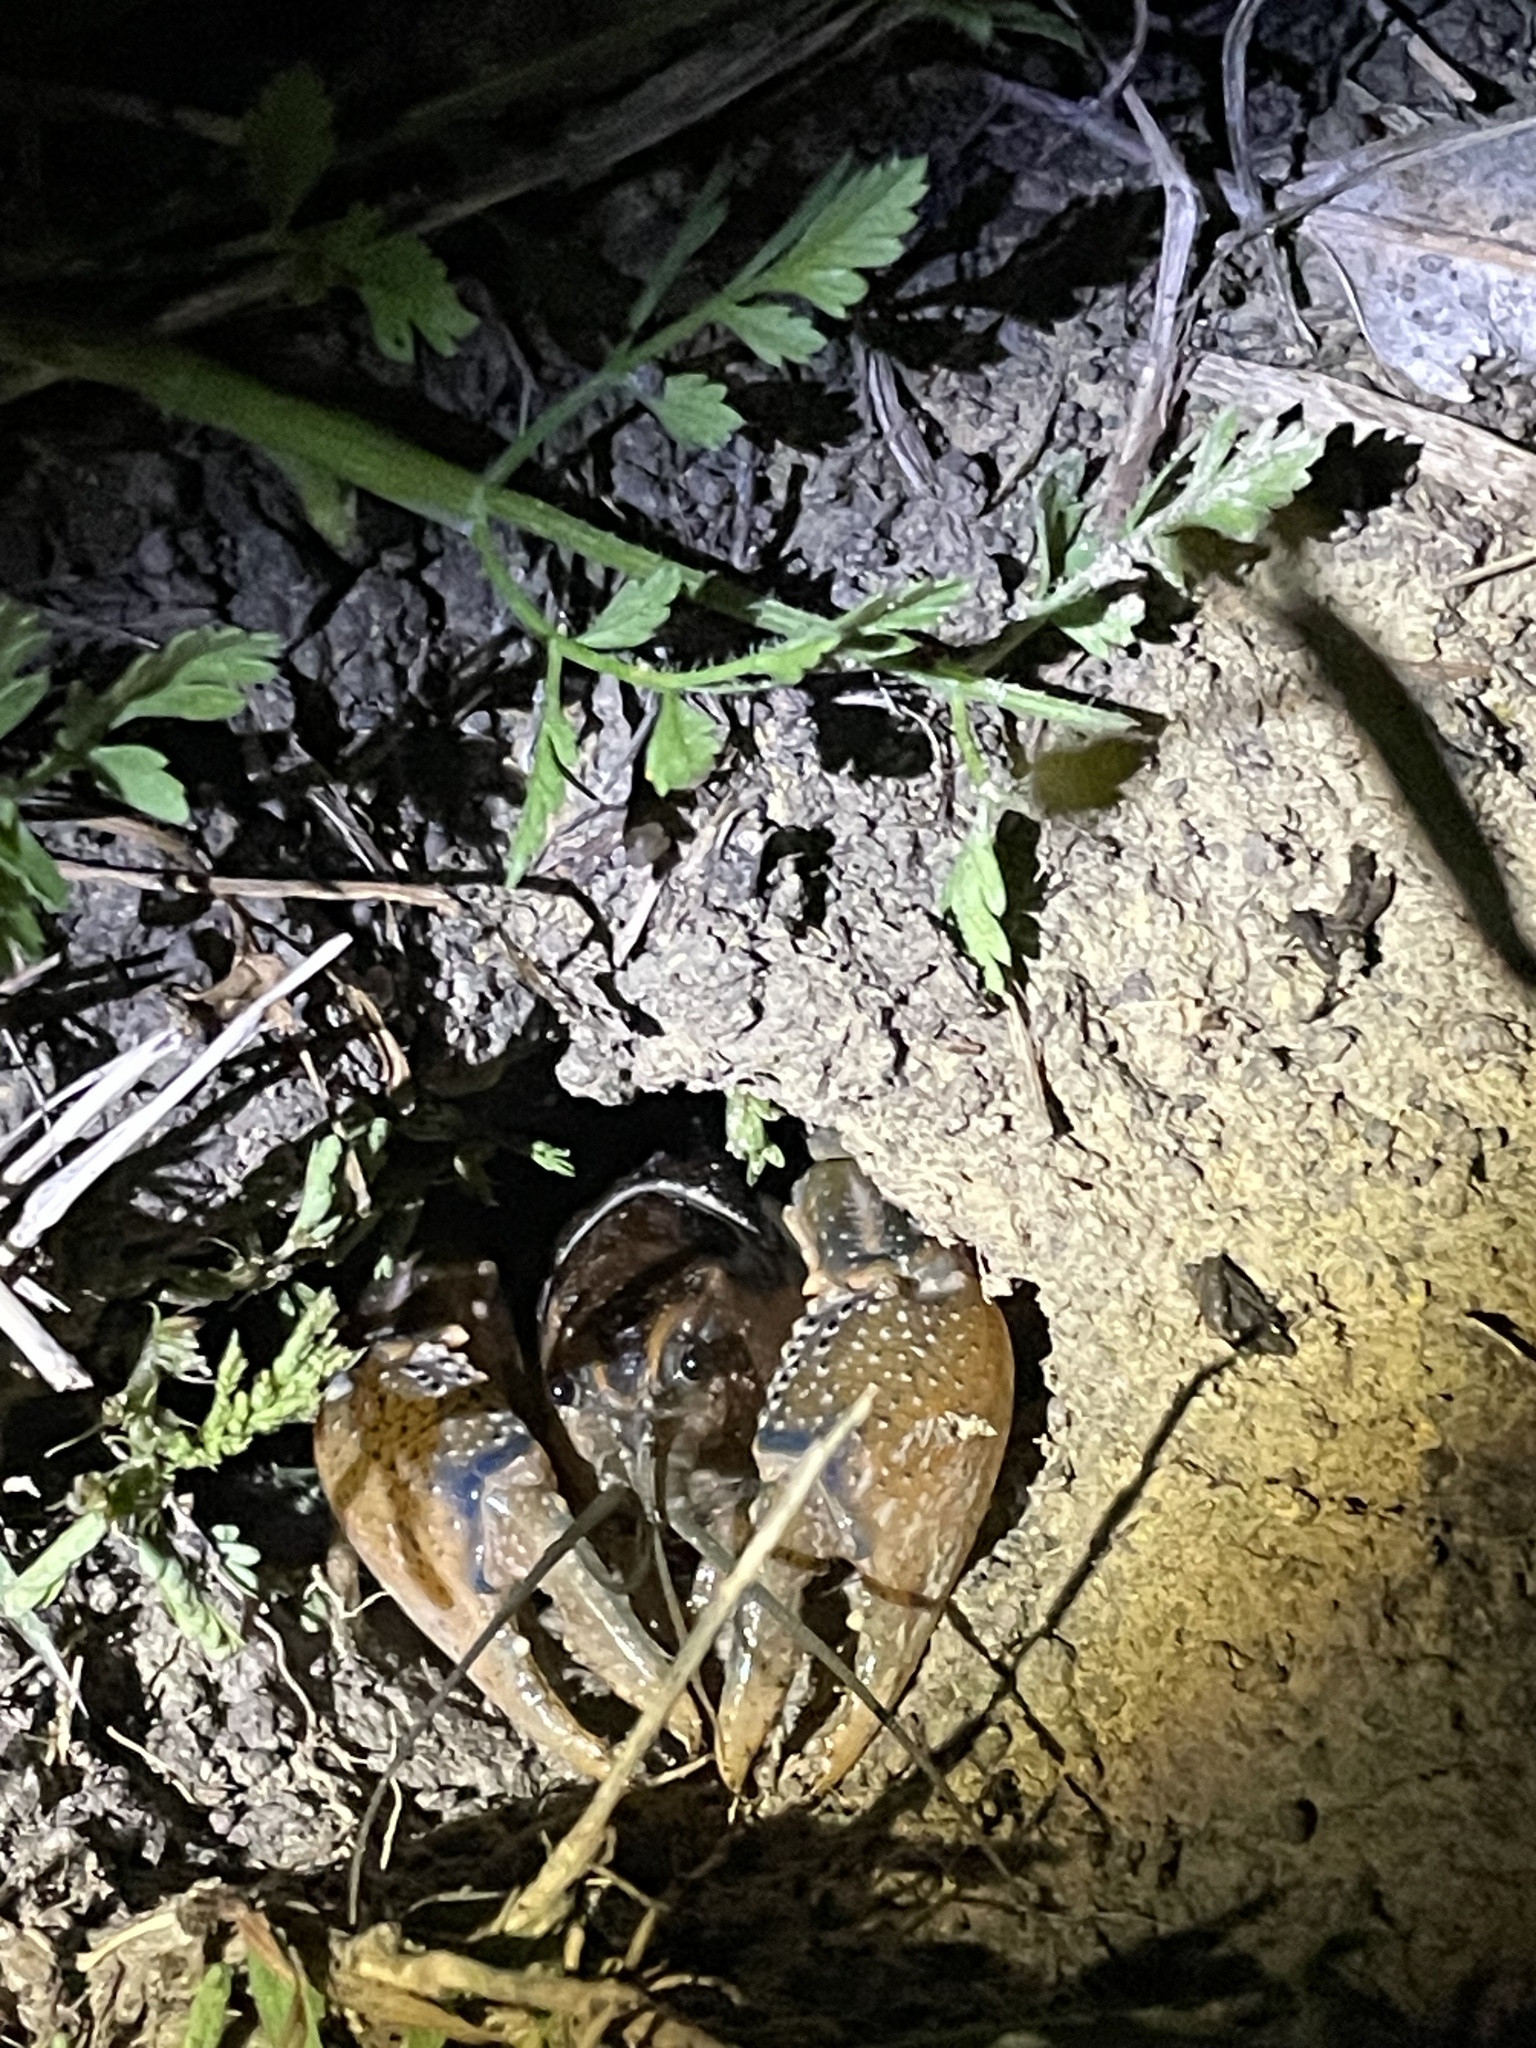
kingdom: Animalia
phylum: Arthropoda
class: Malacostraca
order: Decapoda
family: Cambaridae
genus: Procambarus
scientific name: Procambarus steigmani
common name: Parkhill prairie crayfish
